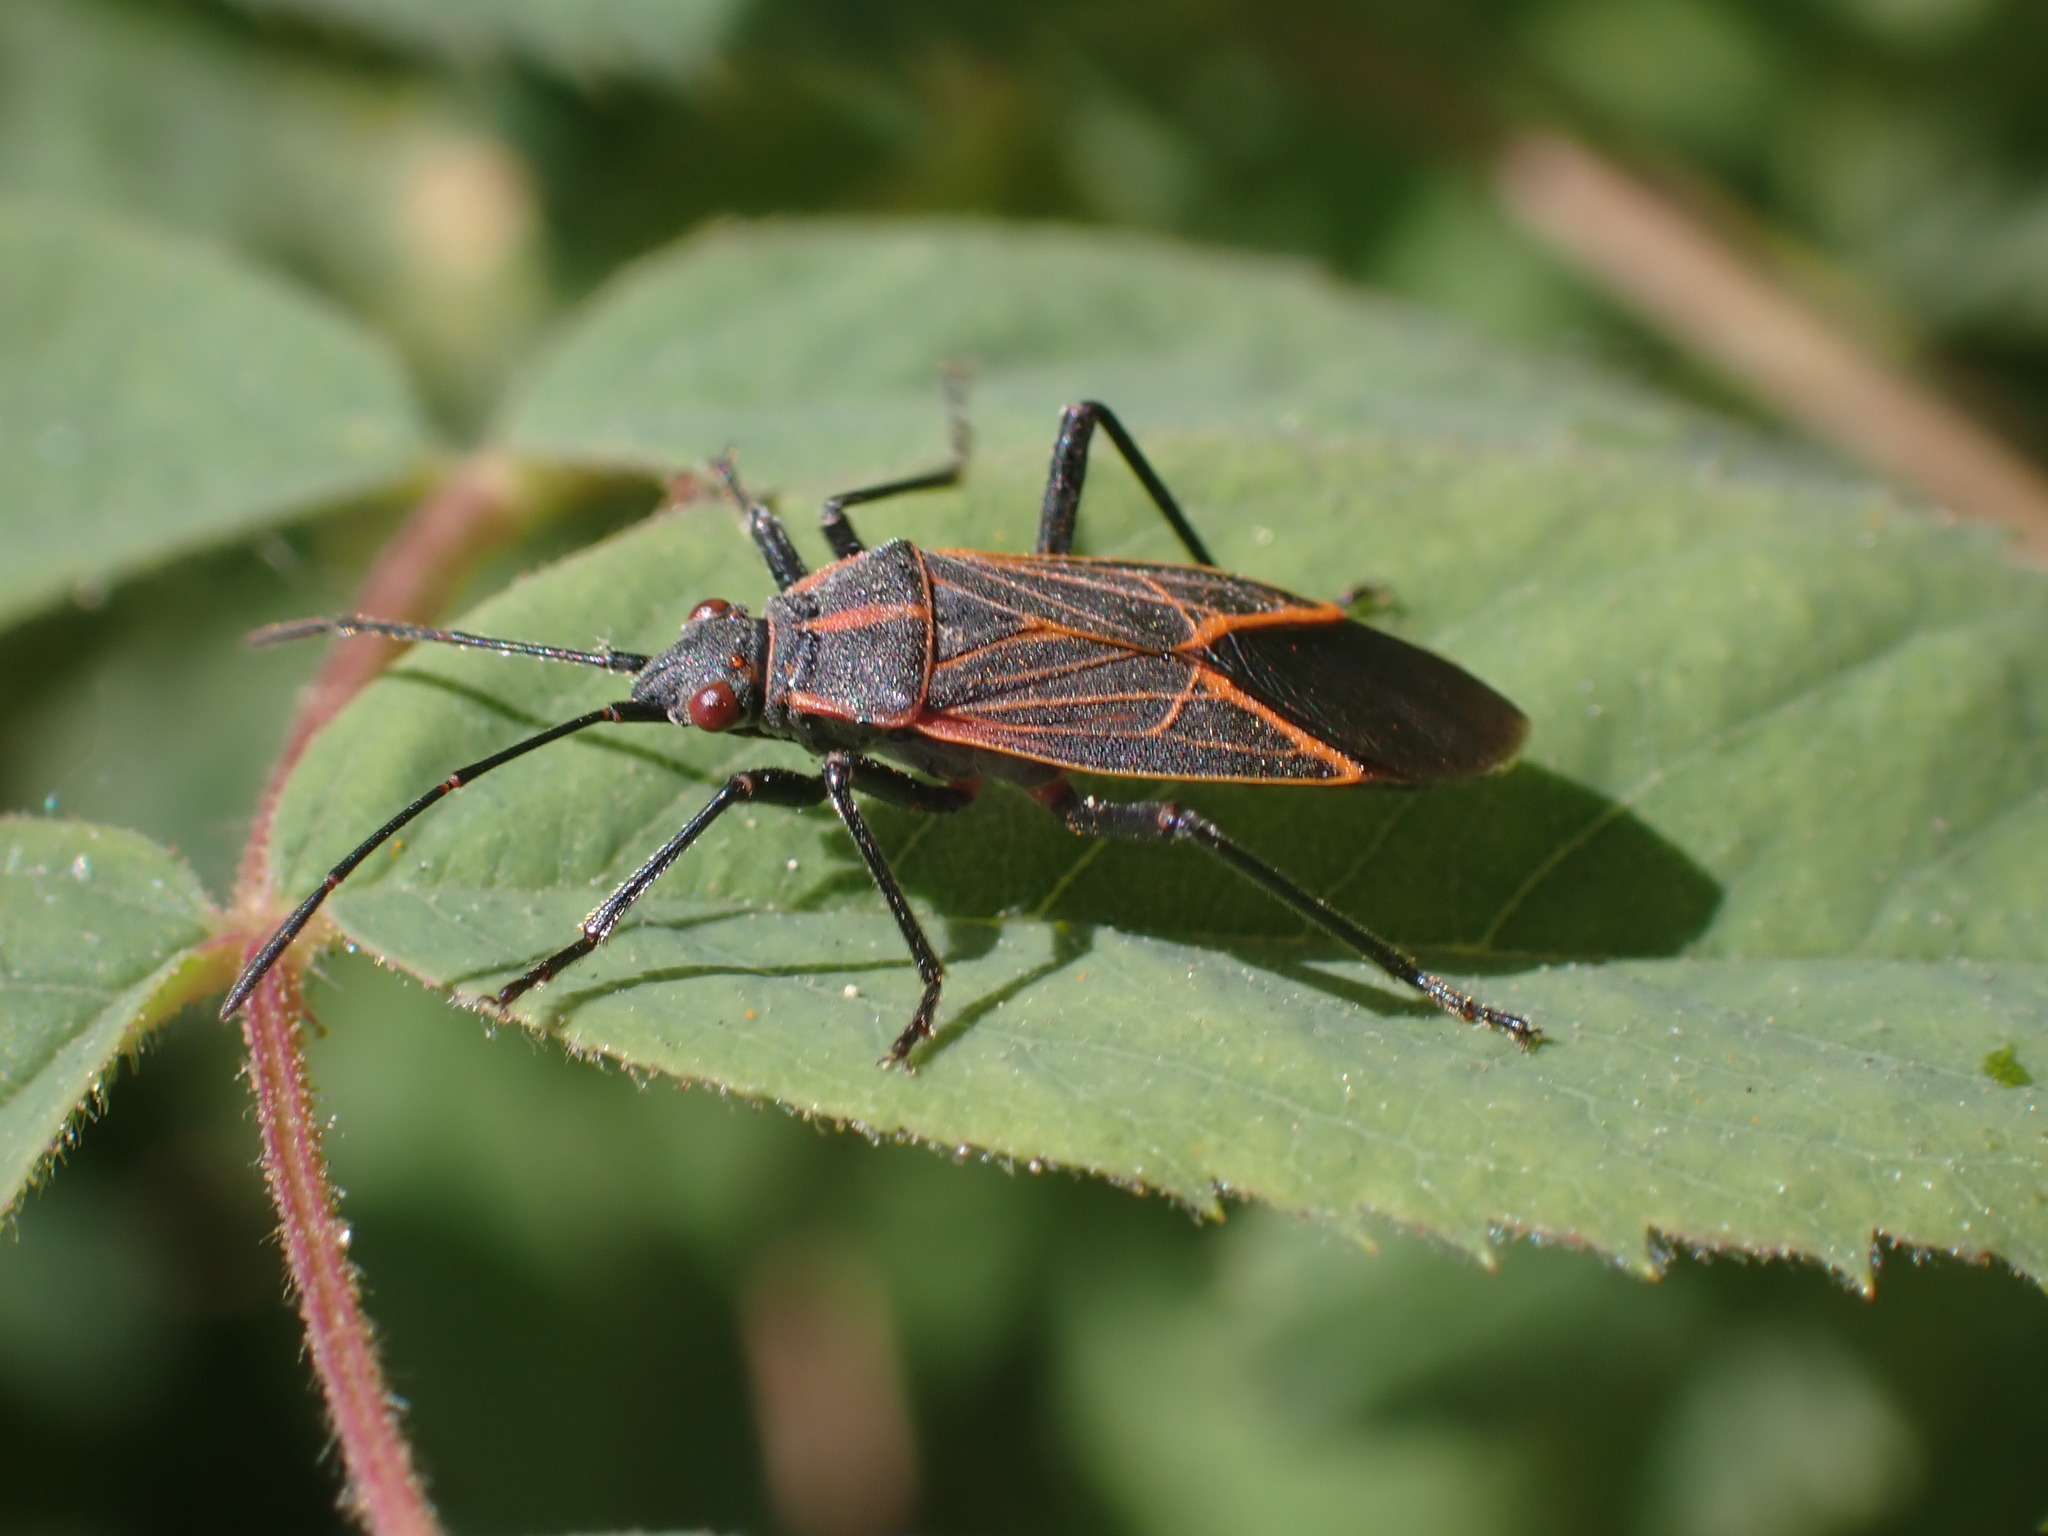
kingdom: Animalia
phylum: Arthropoda
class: Insecta
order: Hemiptera
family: Rhopalidae
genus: Boisea
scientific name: Boisea rubrolineata
